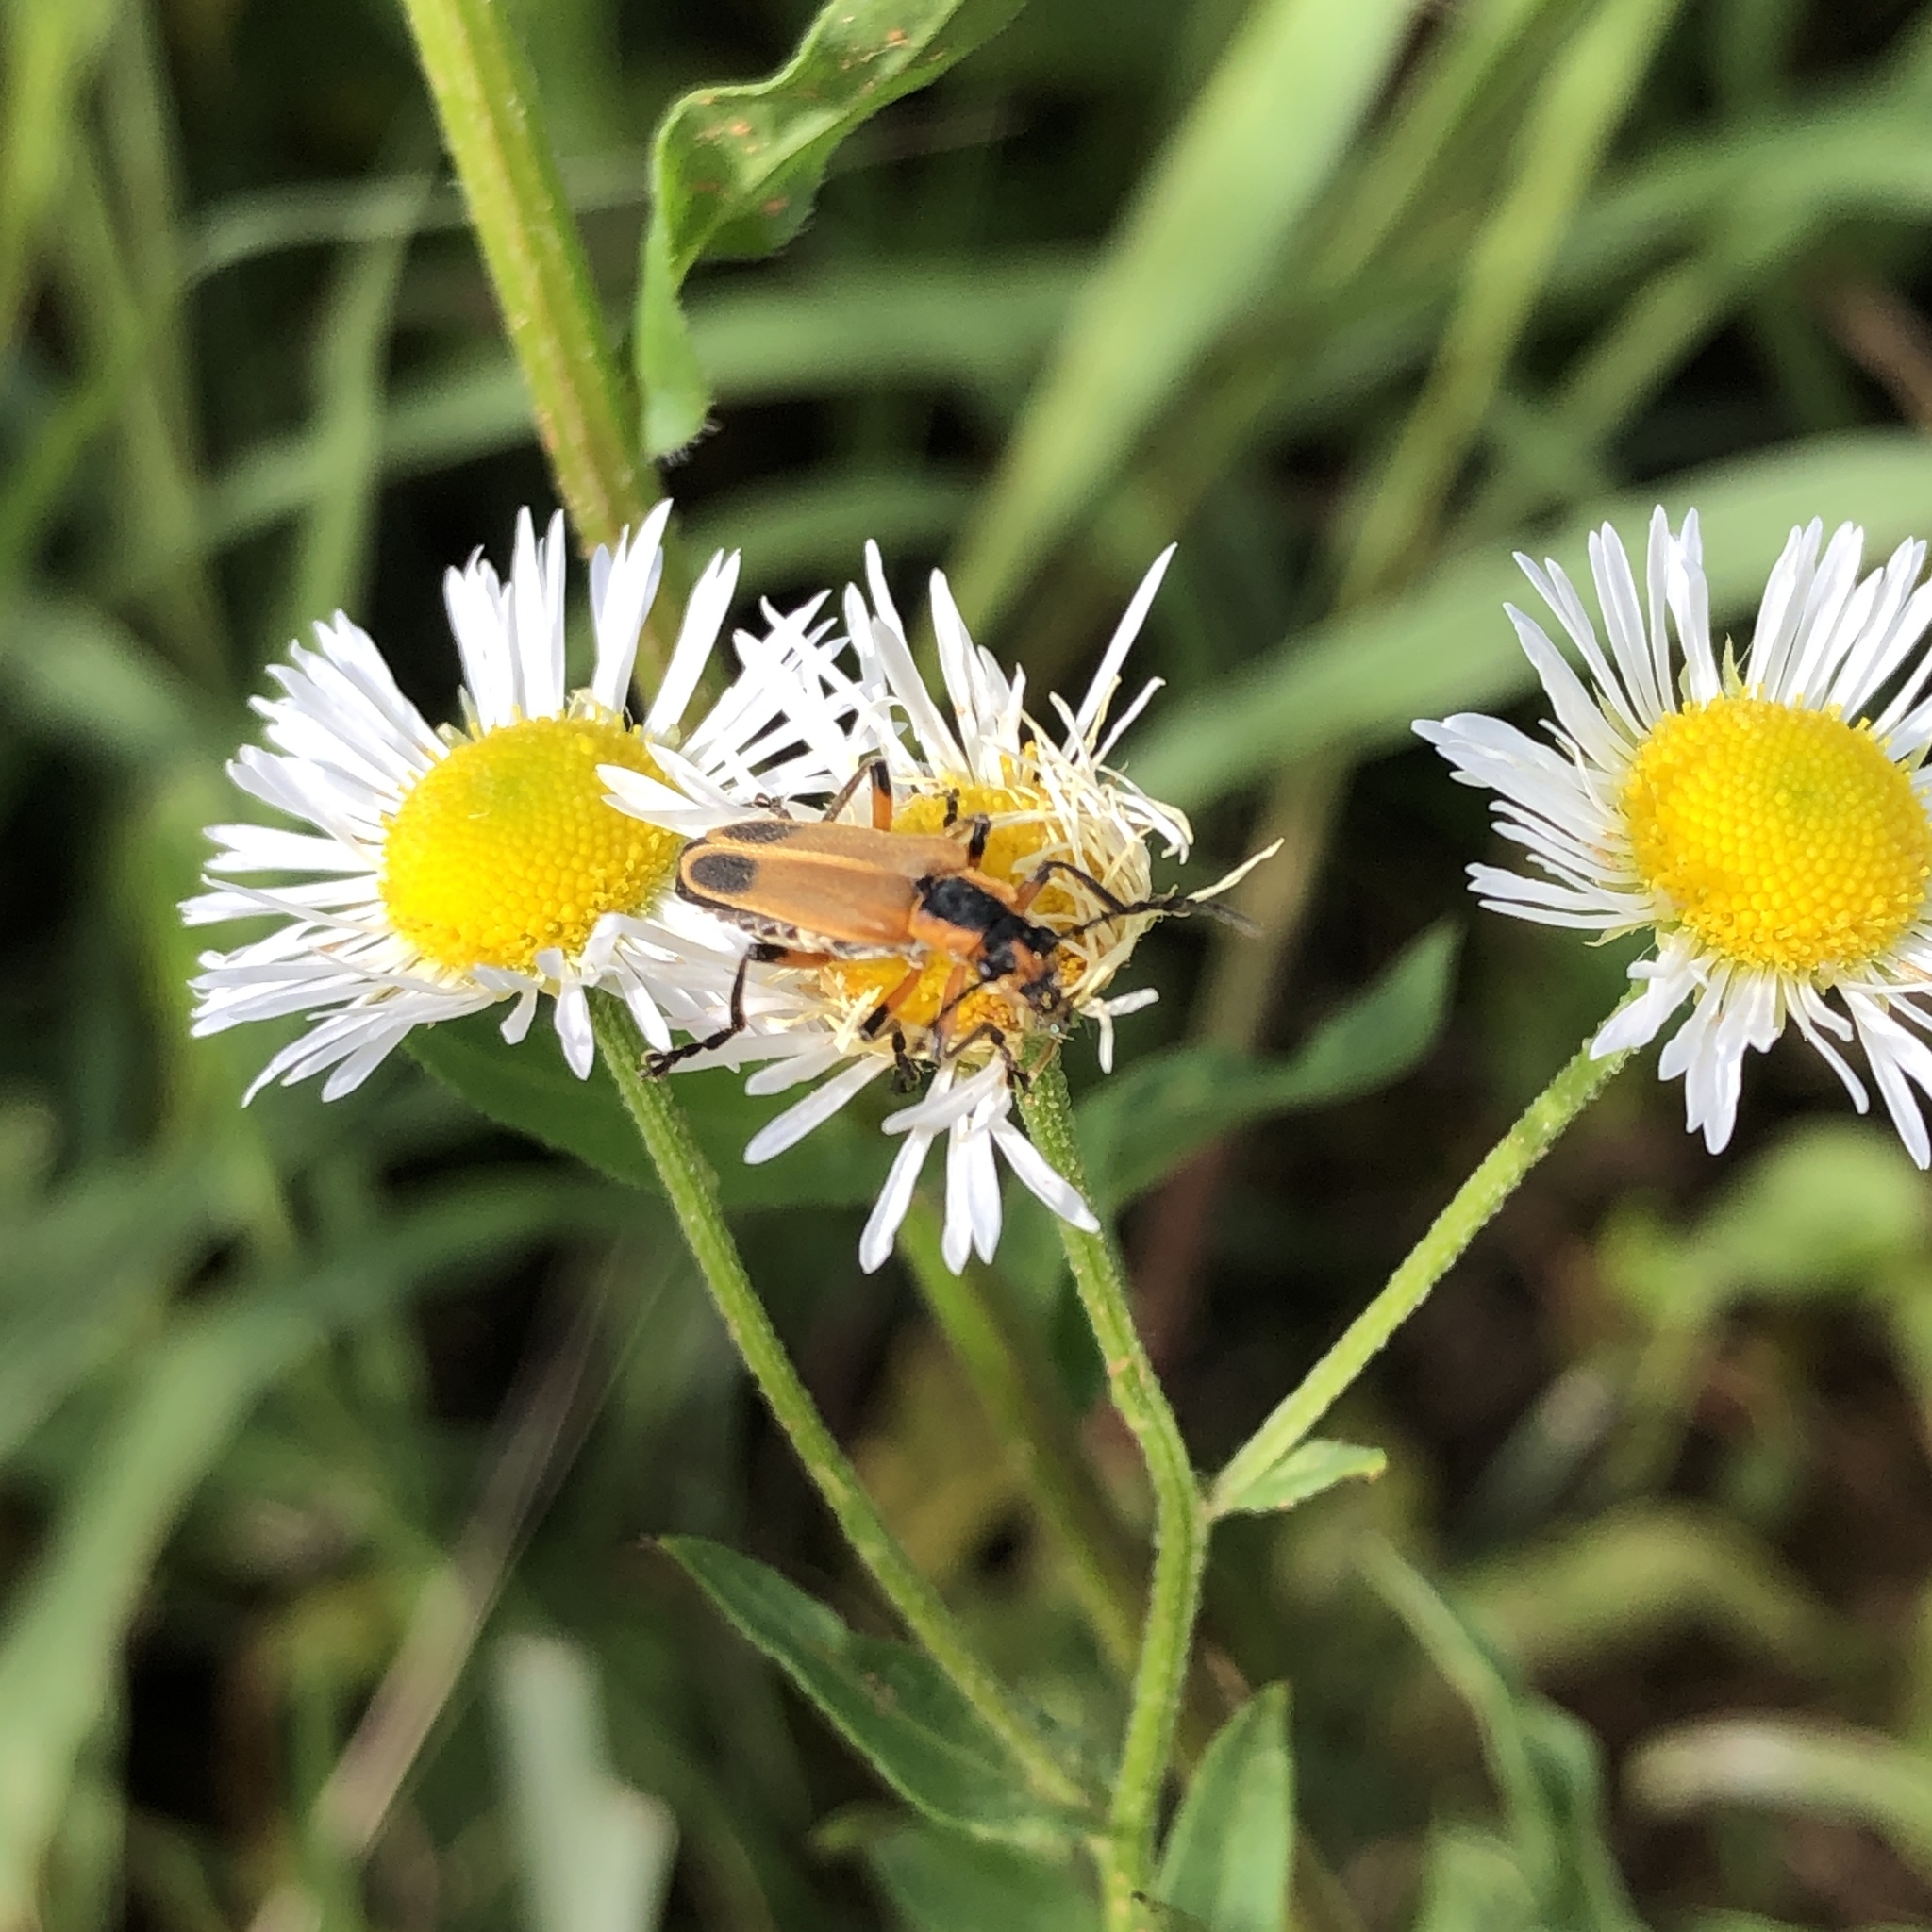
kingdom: Animalia
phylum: Arthropoda
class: Insecta
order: Coleoptera
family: Cantharidae
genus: Chauliognathus
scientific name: Chauliognathus marginatus
